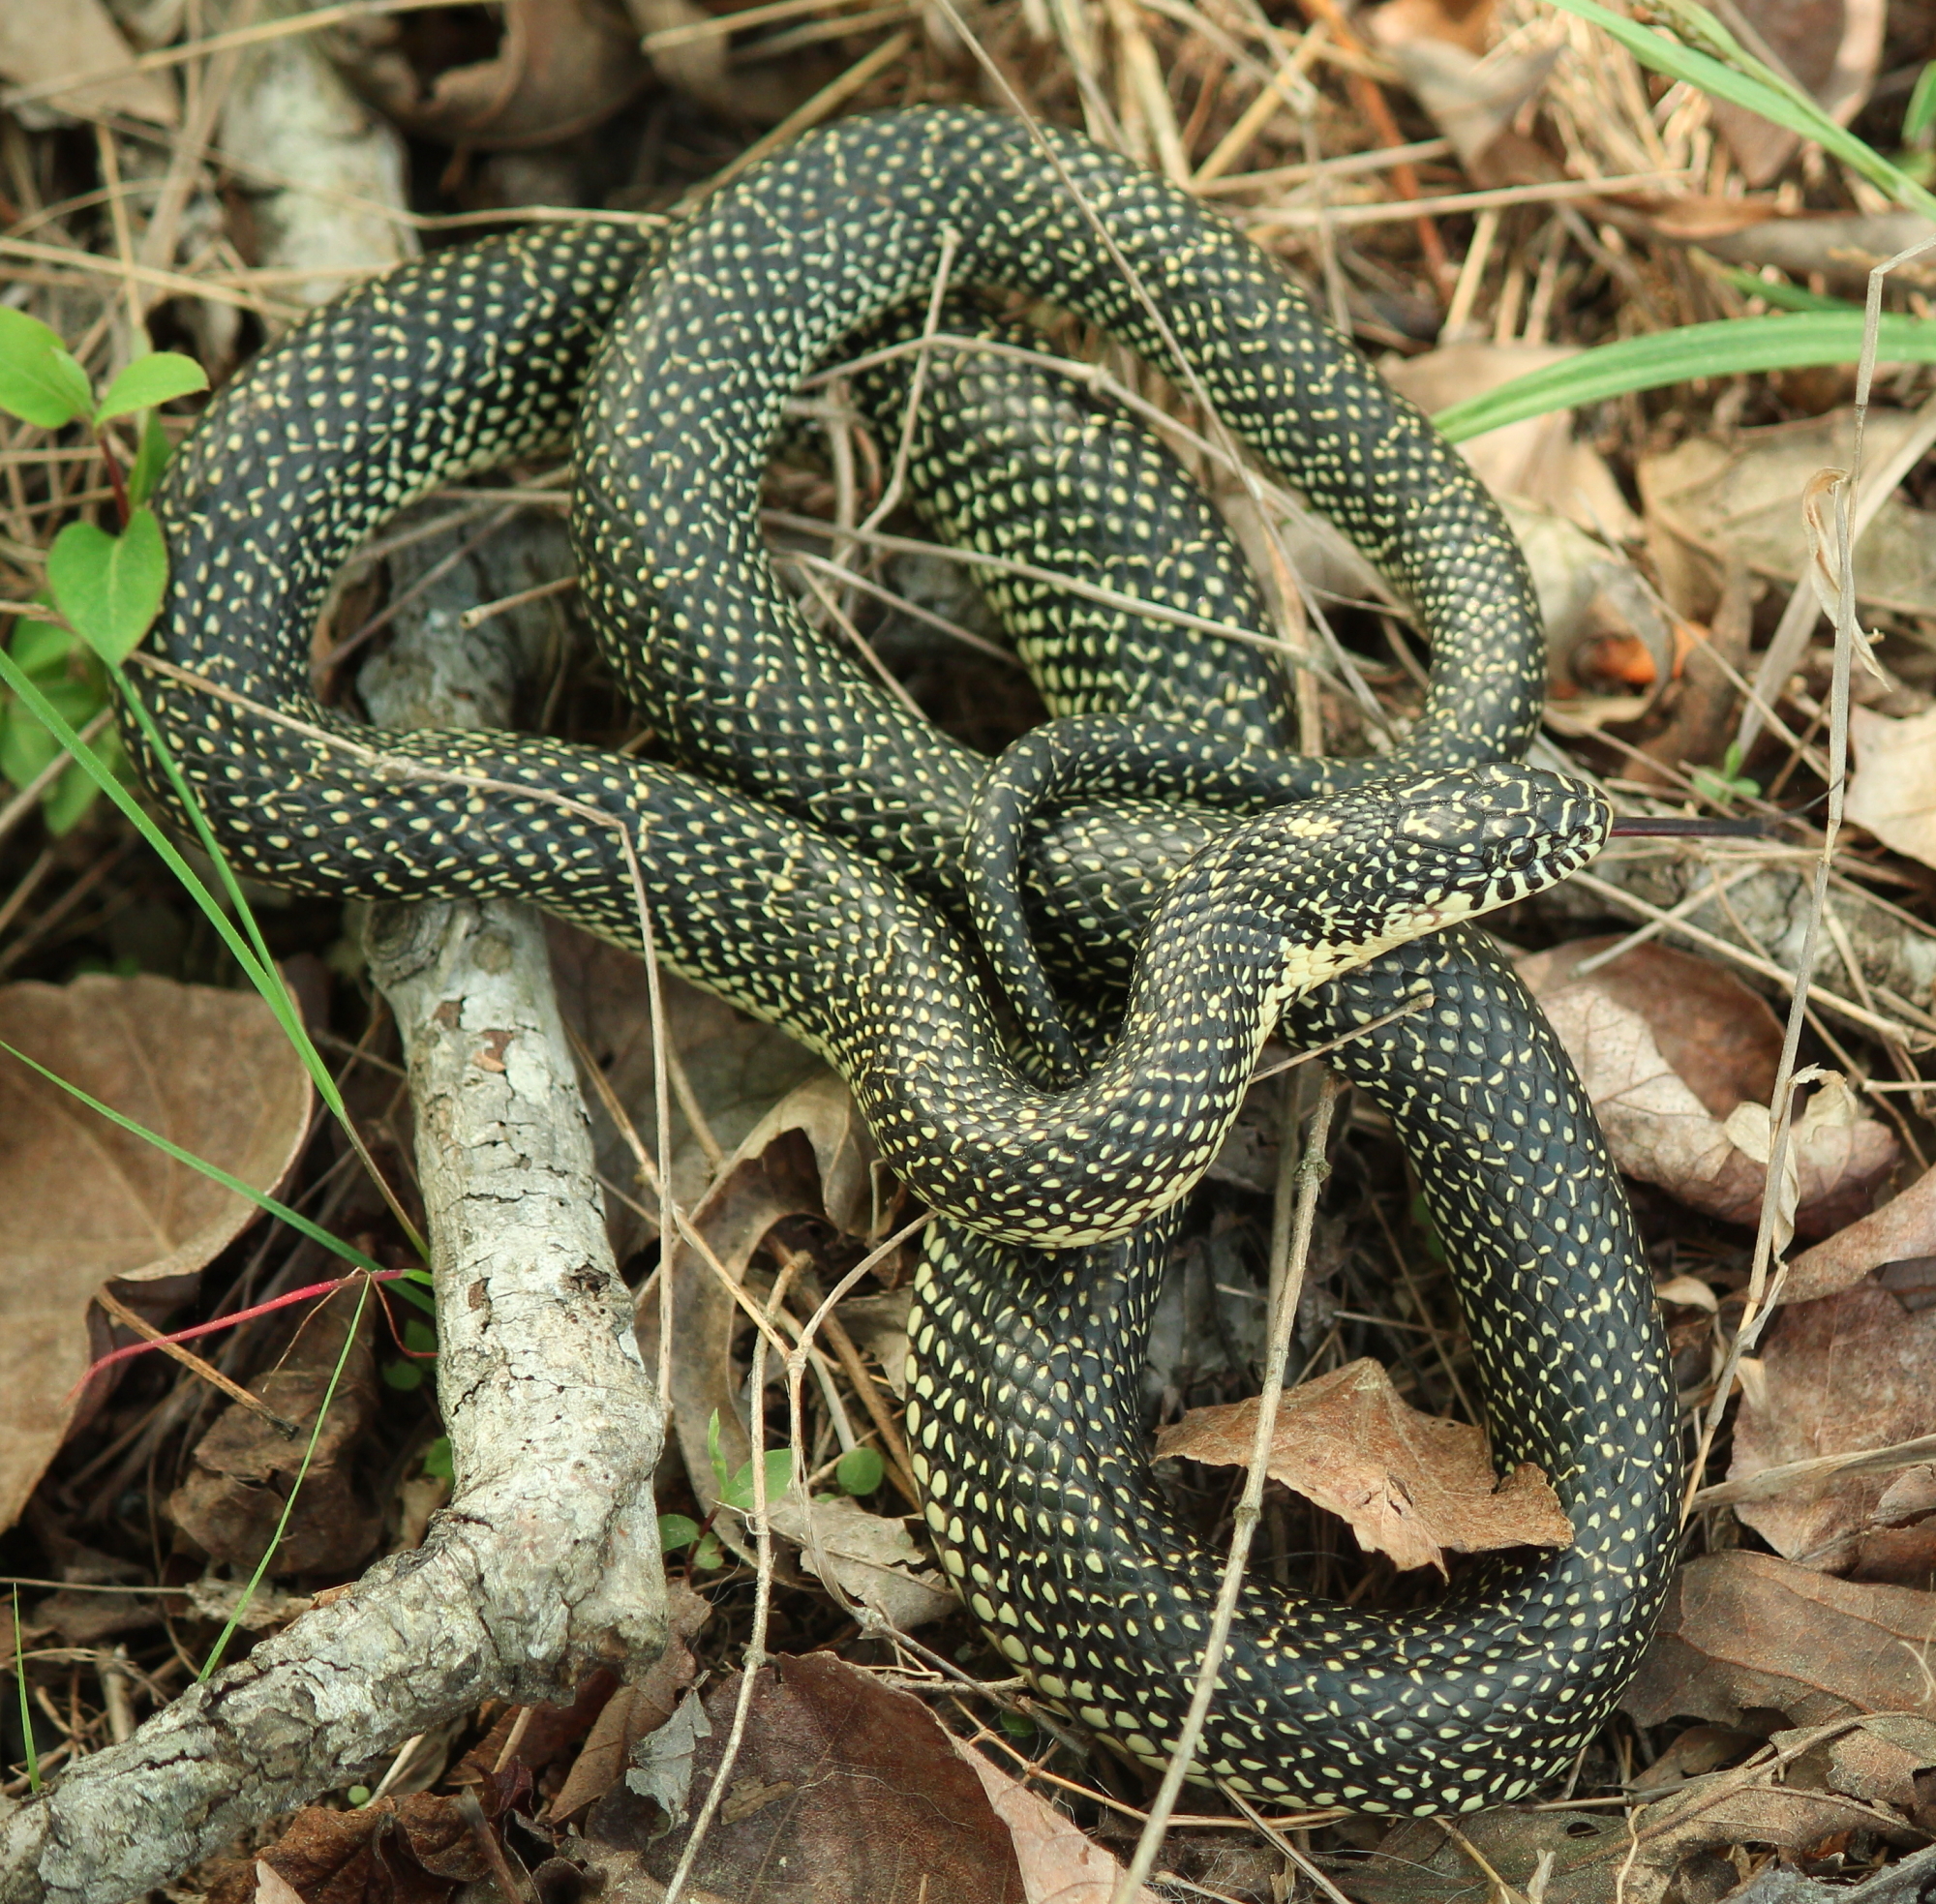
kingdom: Animalia
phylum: Chordata
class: Squamata
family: Colubridae
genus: Lampropeltis
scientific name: Lampropeltis holbrooki
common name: Speckled kingsnake
